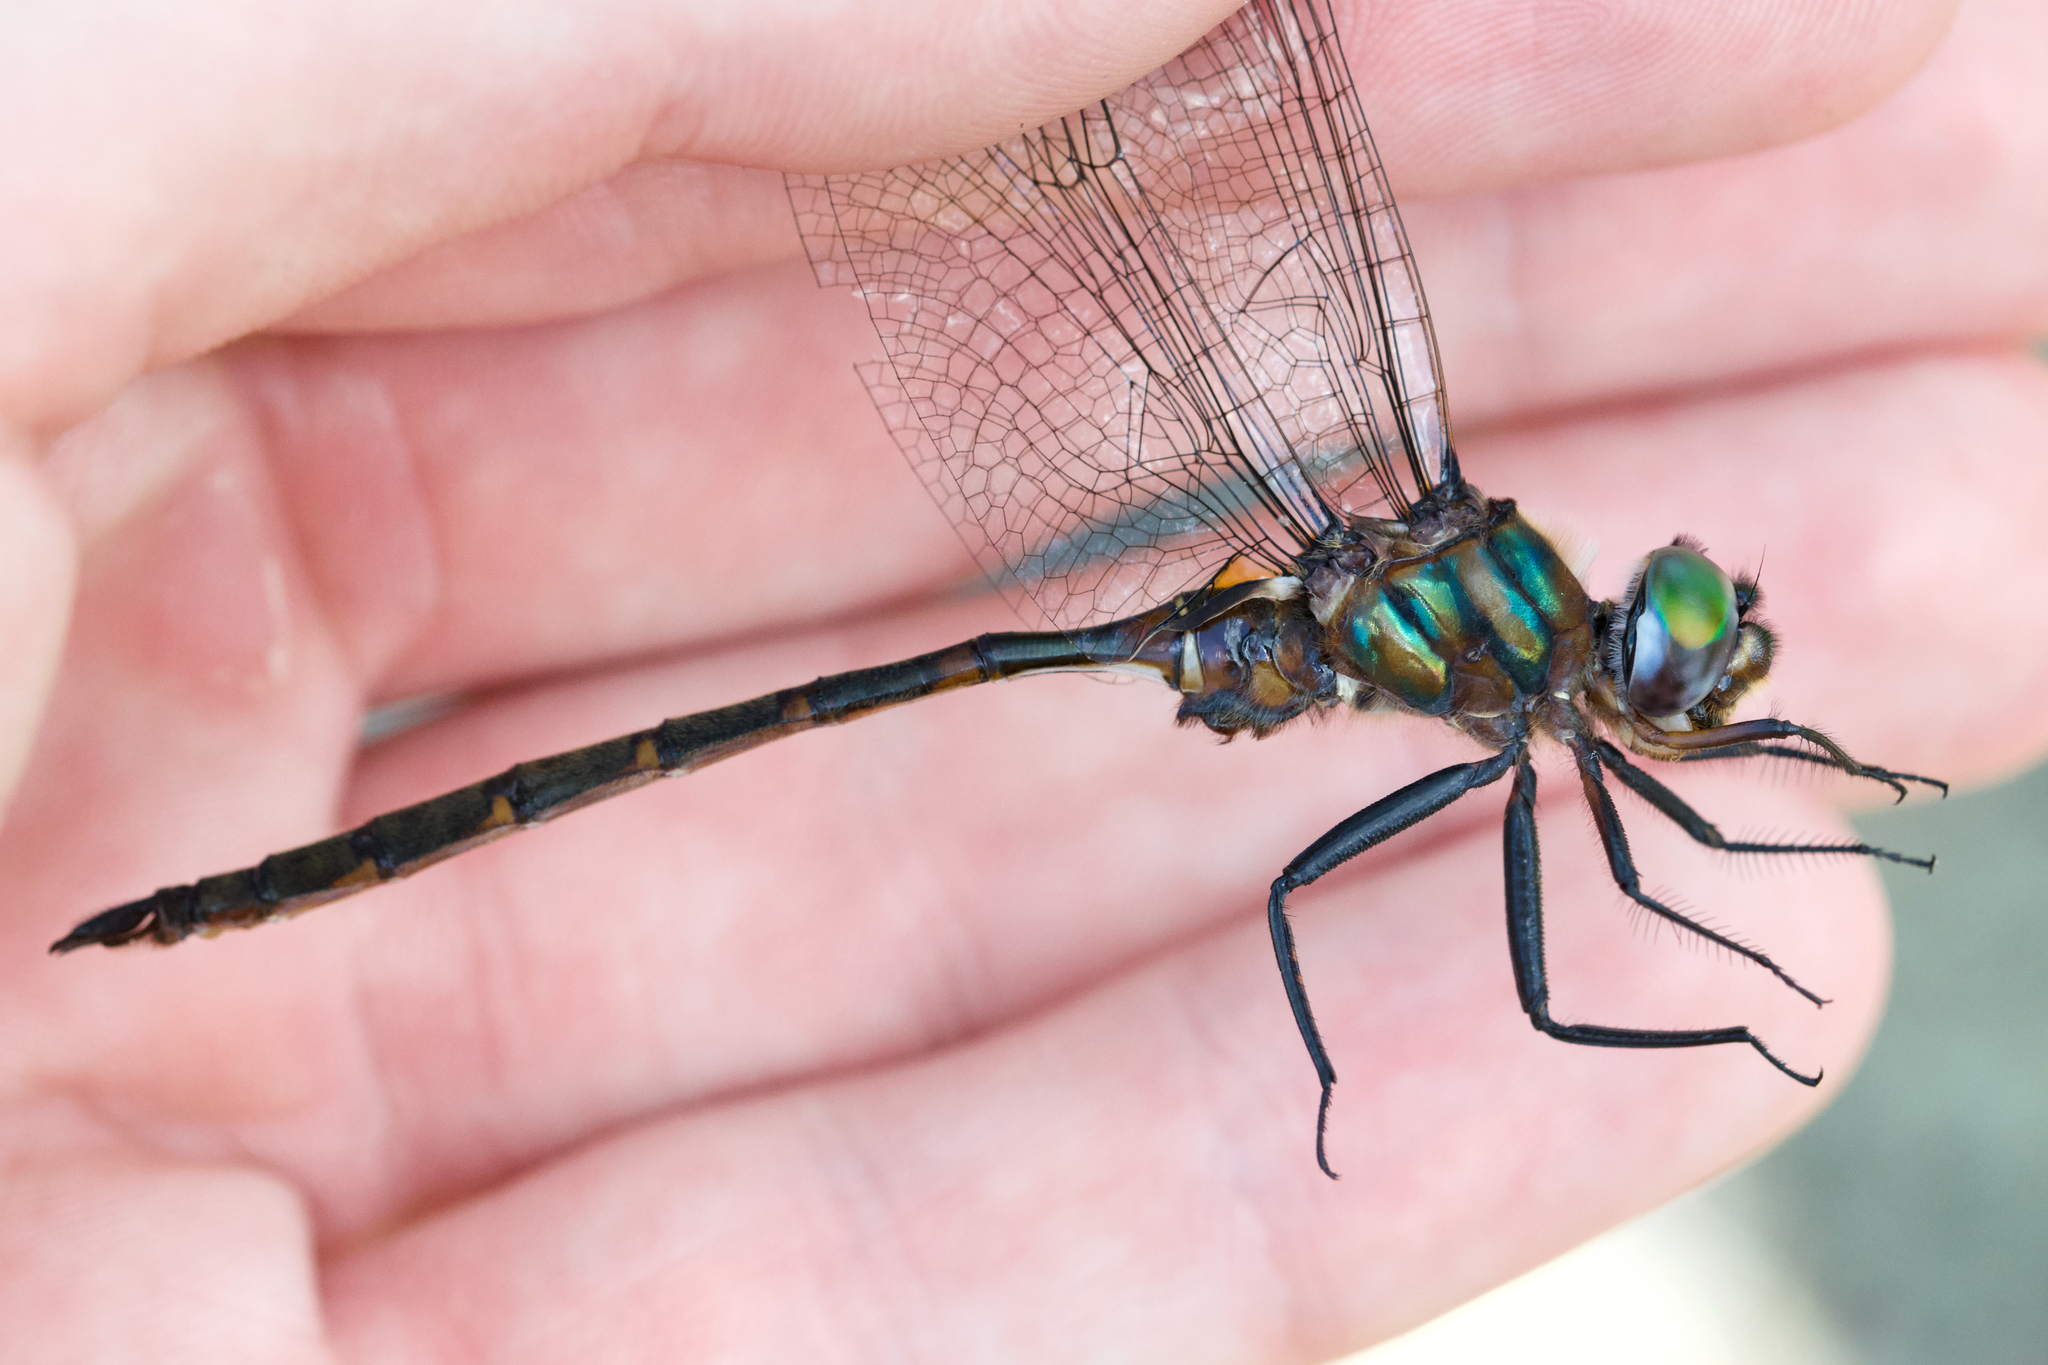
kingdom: Animalia
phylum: Arthropoda
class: Insecta
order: Odonata
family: Corduliidae
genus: Somatochlora
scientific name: Somatochlora incurvata
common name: Incurvate emerald
